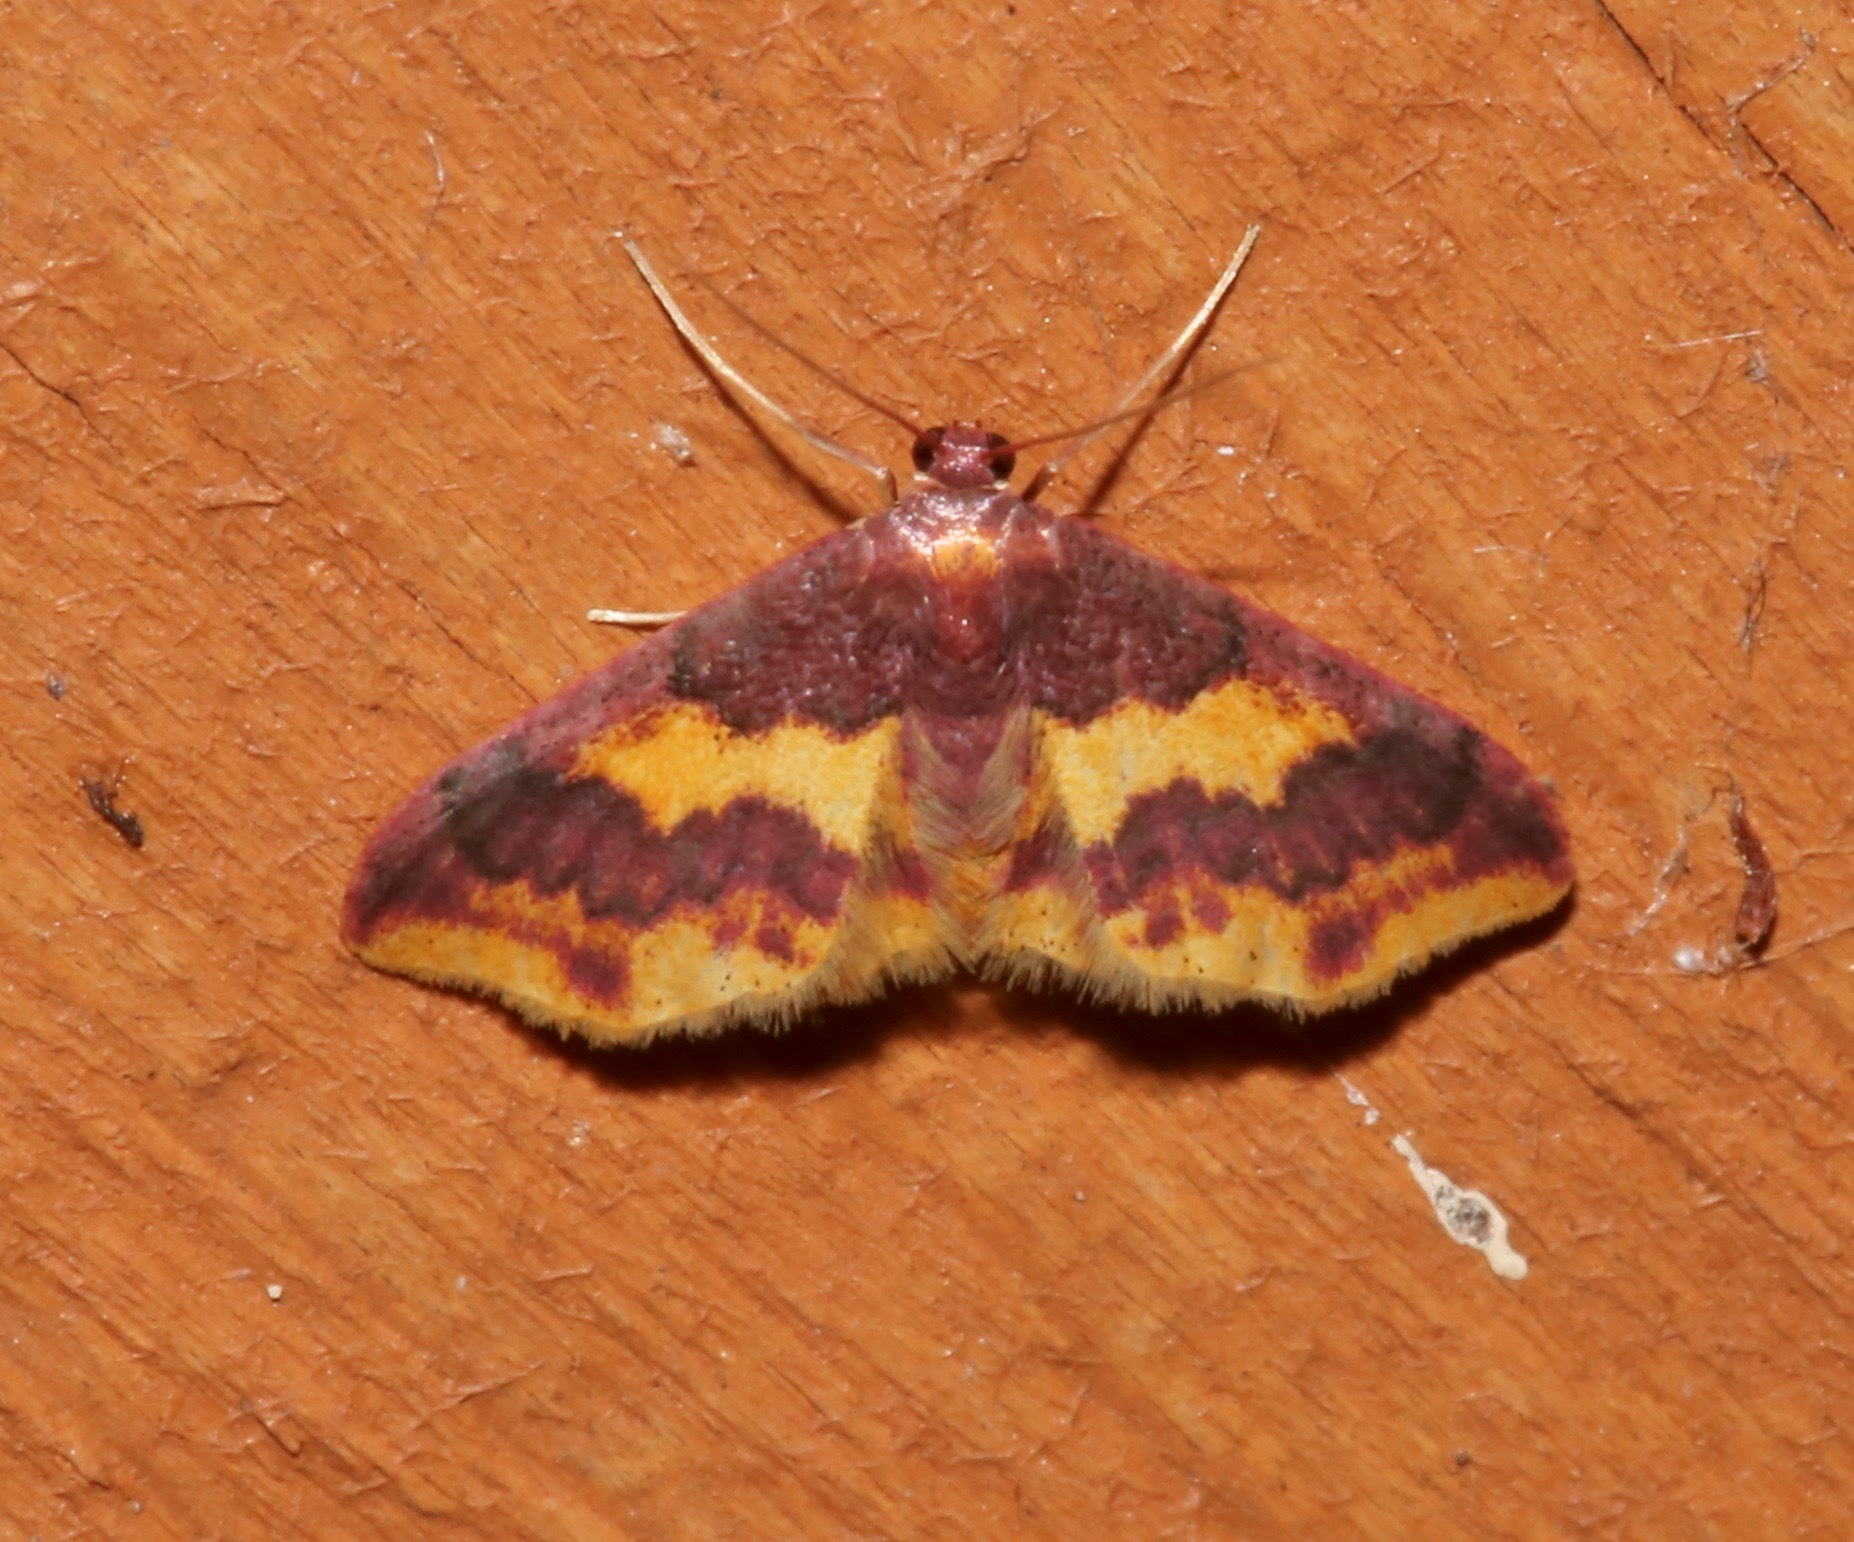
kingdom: Animalia
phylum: Arthropoda
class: Insecta
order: Lepidoptera
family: Geometridae
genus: Lophosis
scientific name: Lophosis labeculata
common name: Stained lophosis moth
